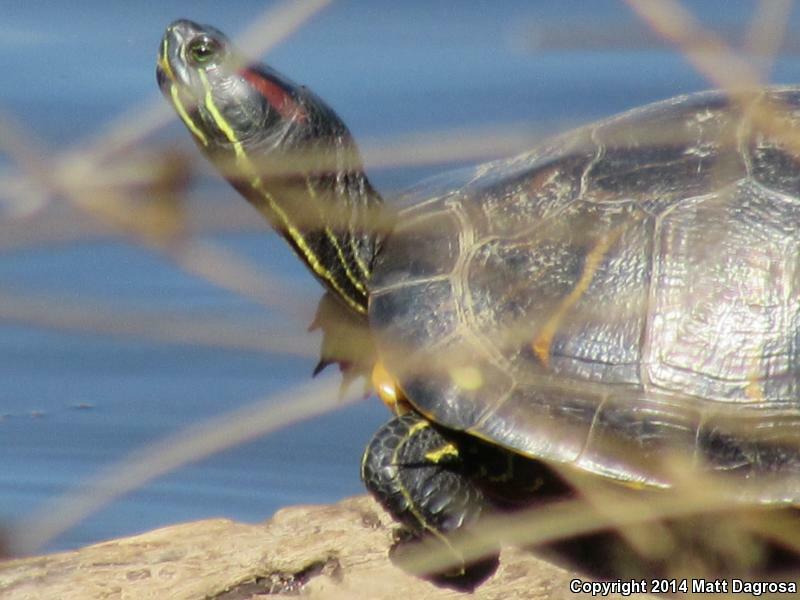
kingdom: Animalia
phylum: Chordata
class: Testudines
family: Emydidae
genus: Trachemys
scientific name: Trachemys scripta
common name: Slider
